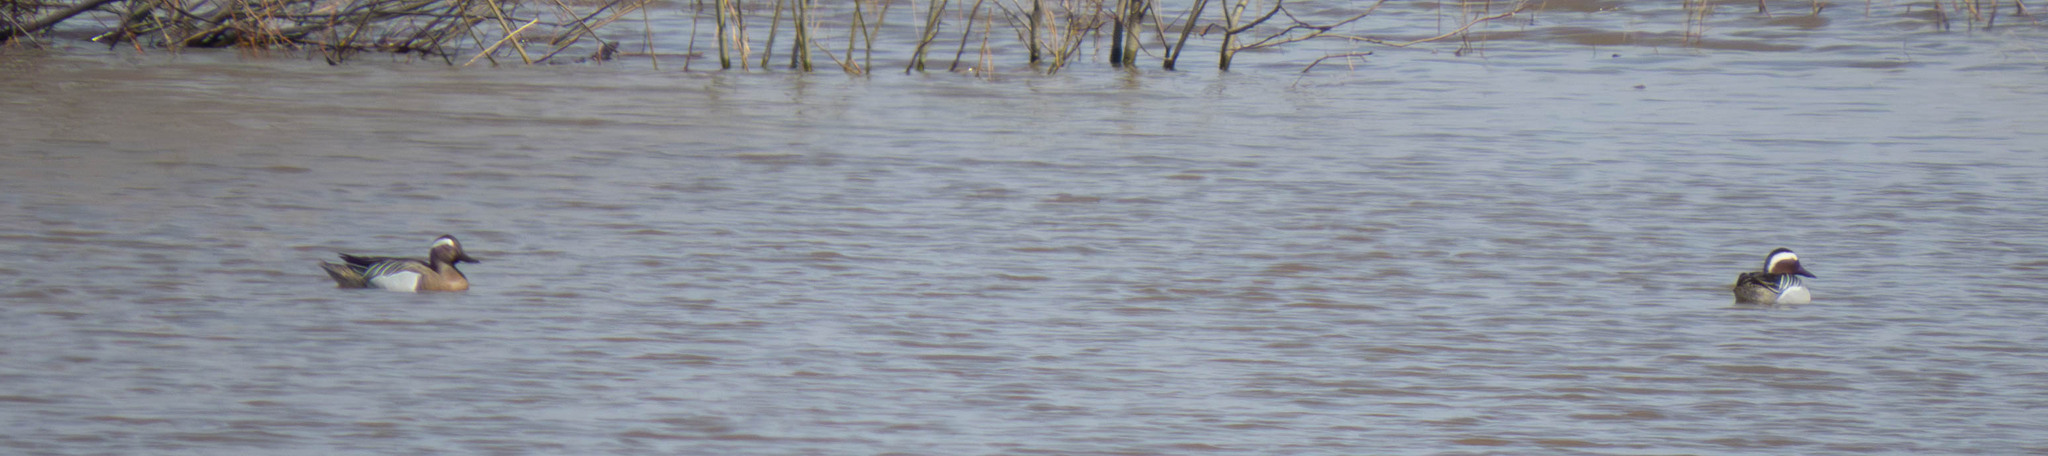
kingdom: Animalia
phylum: Chordata
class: Aves
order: Anseriformes
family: Anatidae
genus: Spatula
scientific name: Spatula querquedula
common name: Garganey
